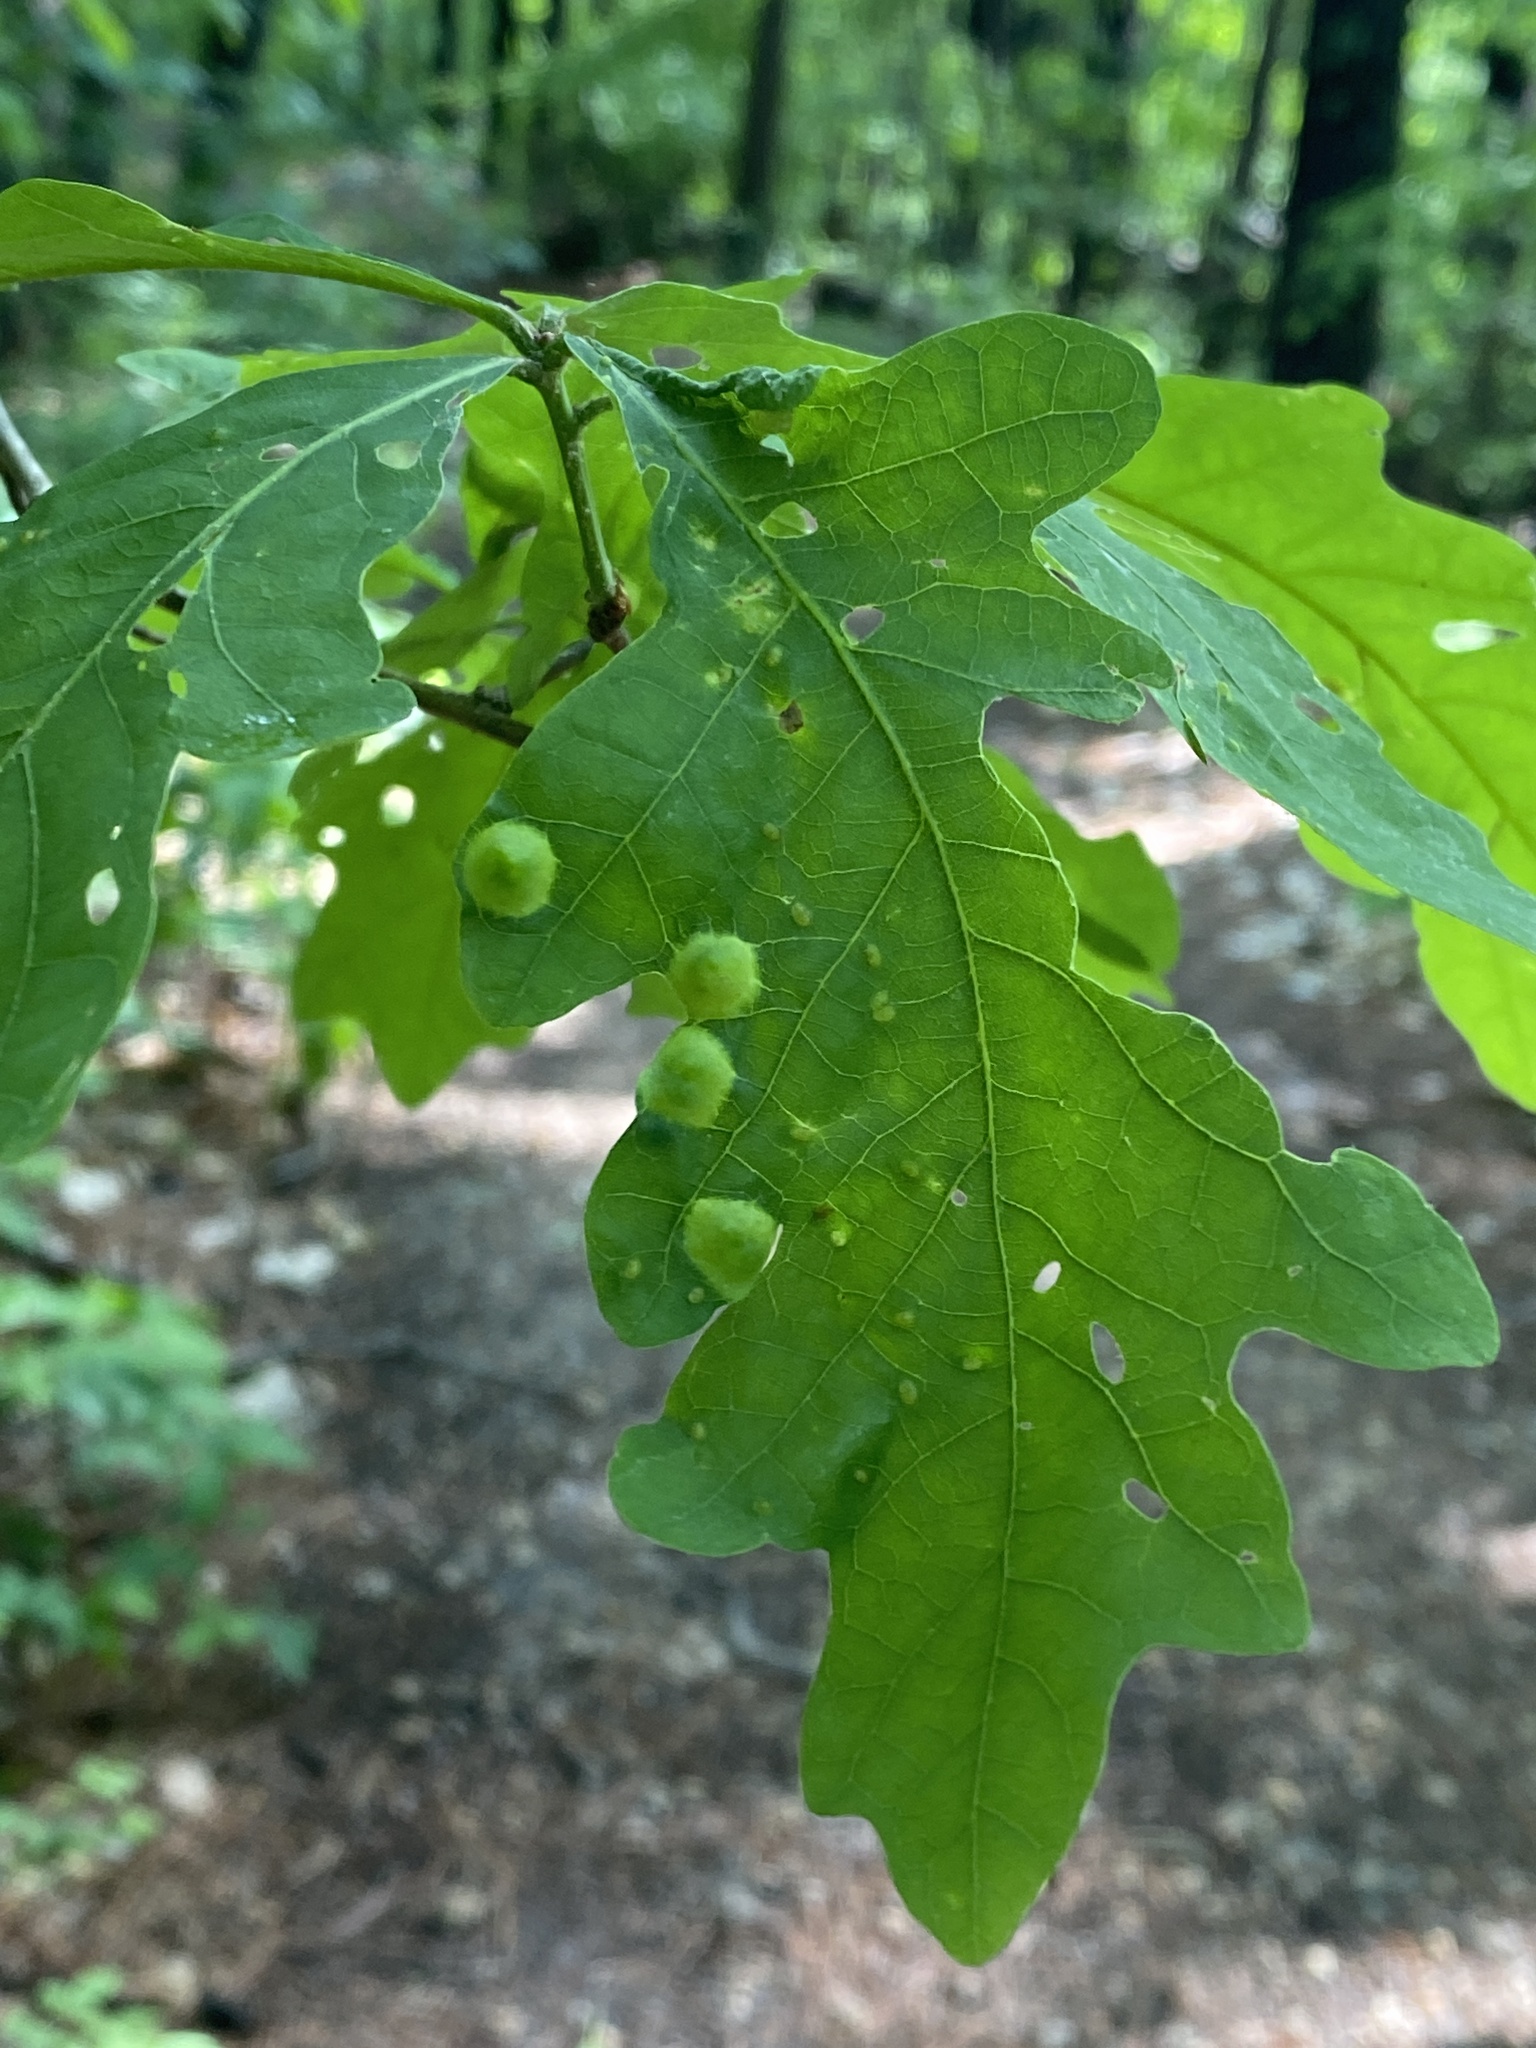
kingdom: Animalia
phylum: Arthropoda
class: Insecta
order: Hymenoptera
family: Cynipidae
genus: Callirhytis
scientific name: Callirhytis
